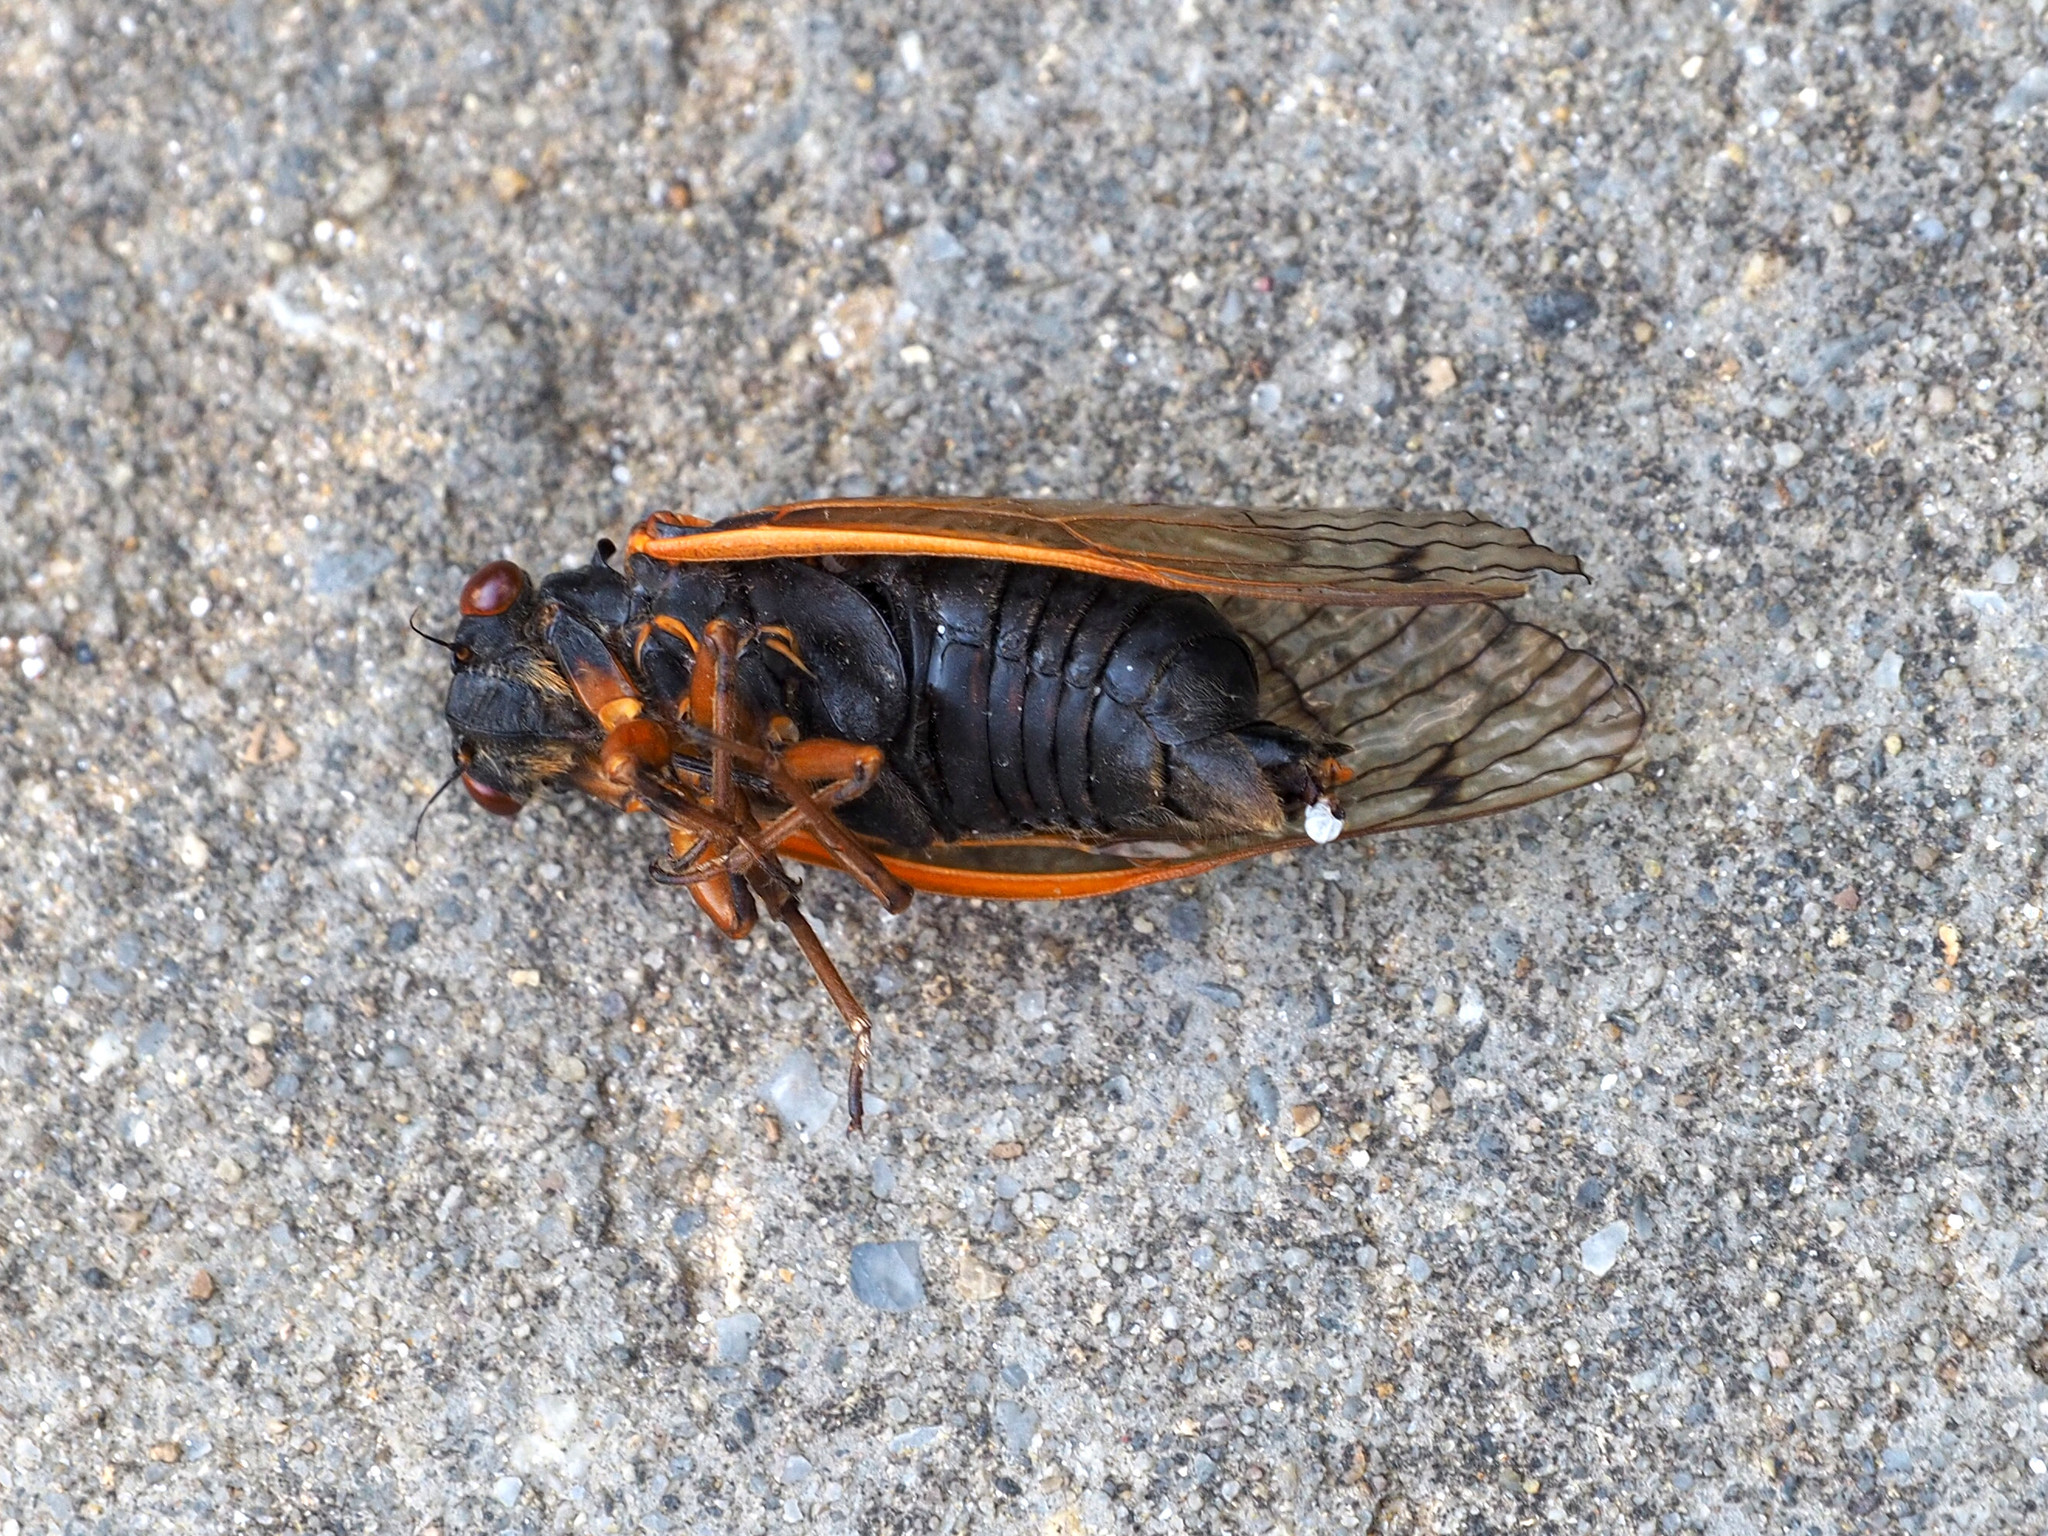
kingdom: Animalia
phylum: Arthropoda
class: Insecta
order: Hemiptera
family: Cicadidae
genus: Magicicada
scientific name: Magicicada cassini
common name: Cassin's 17-year cicada
